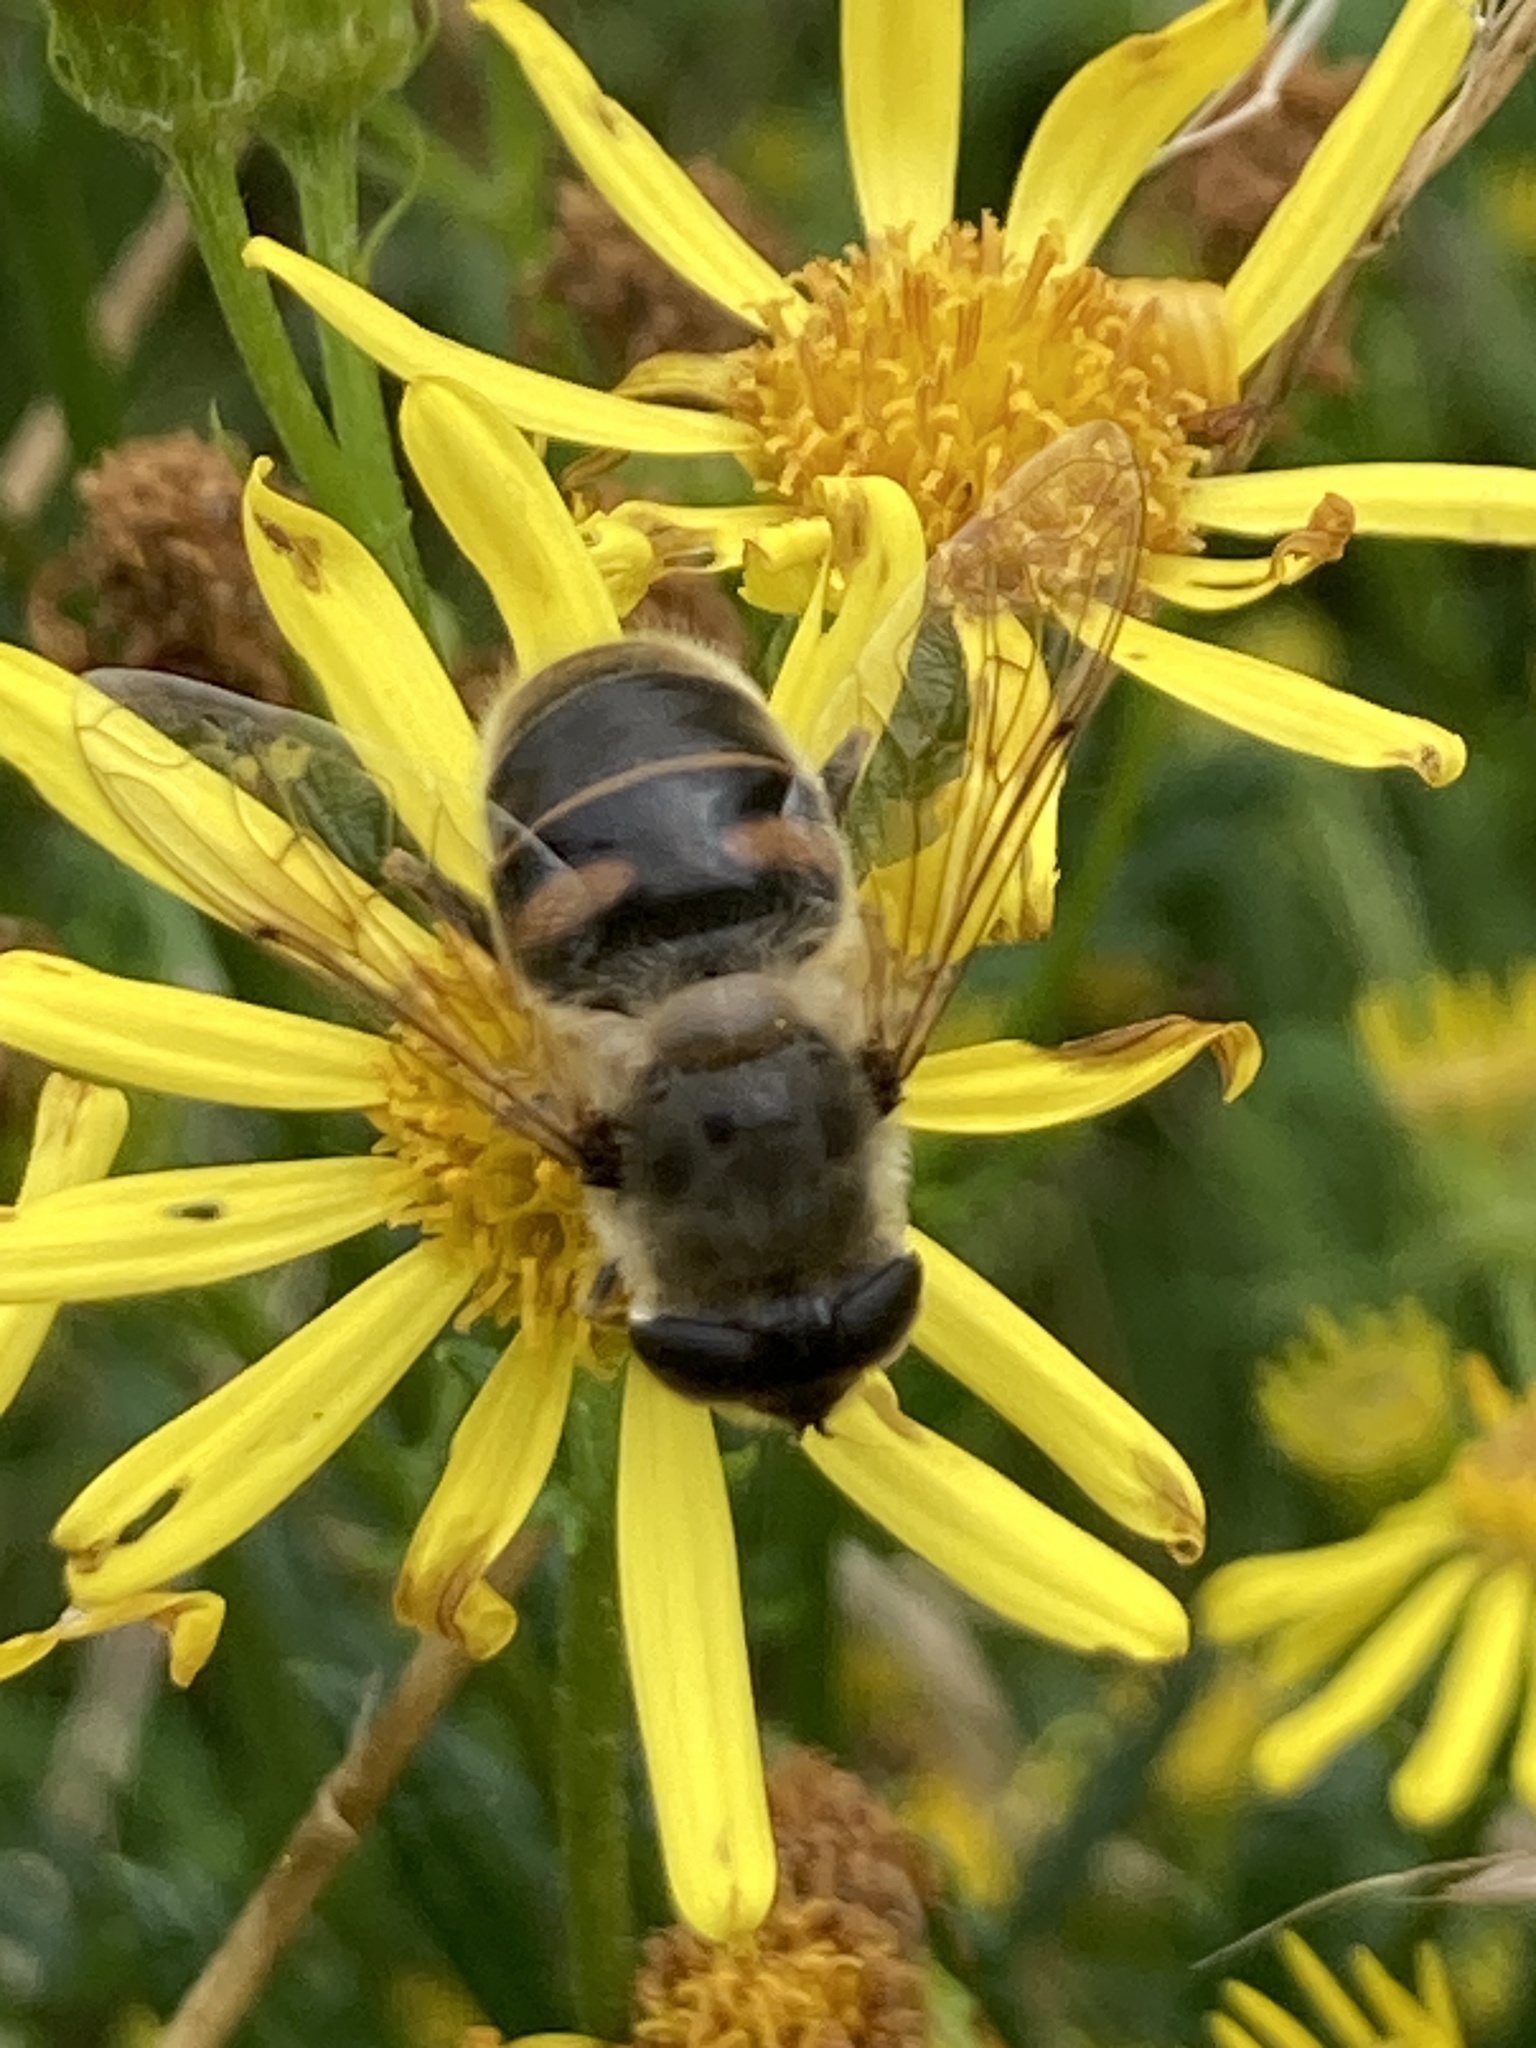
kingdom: Animalia
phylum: Arthropoda
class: Insecta
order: Diptera
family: Syrphidae
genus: Eristalis
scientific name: Eristalis tenax
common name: Drone fly
